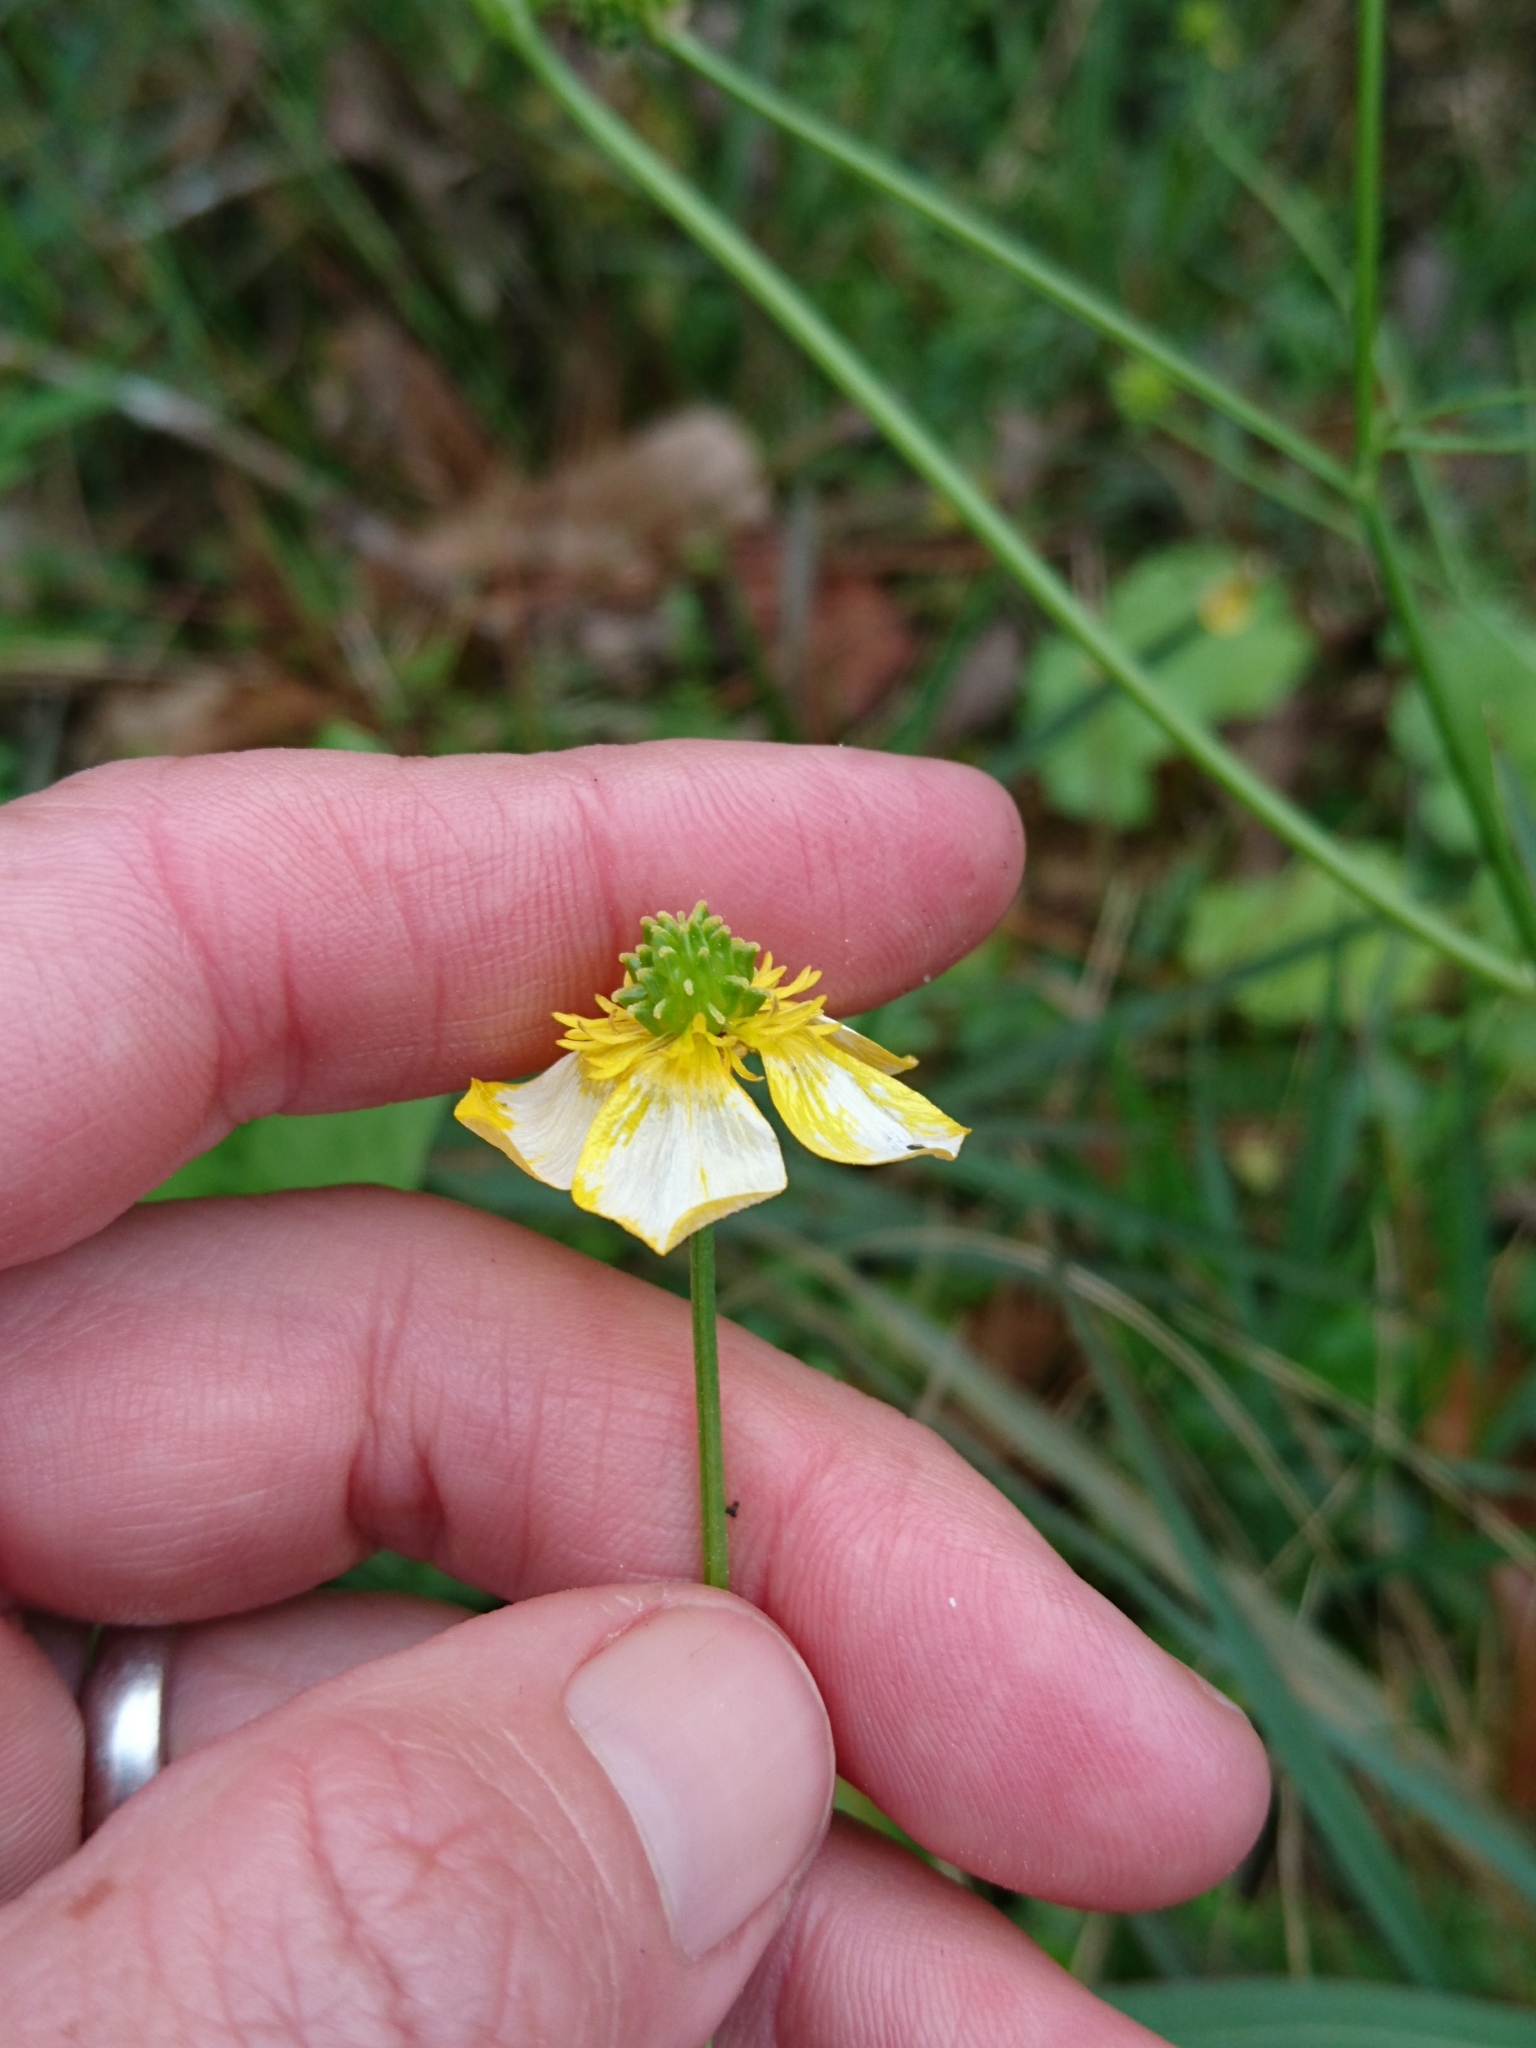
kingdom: Plantae
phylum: Tracheophyta
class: Magnoliopsida
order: Ranunculales
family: Ranunculaceae
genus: Ranunculus
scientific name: Ranunculus sardous
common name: Hairy buttercup
